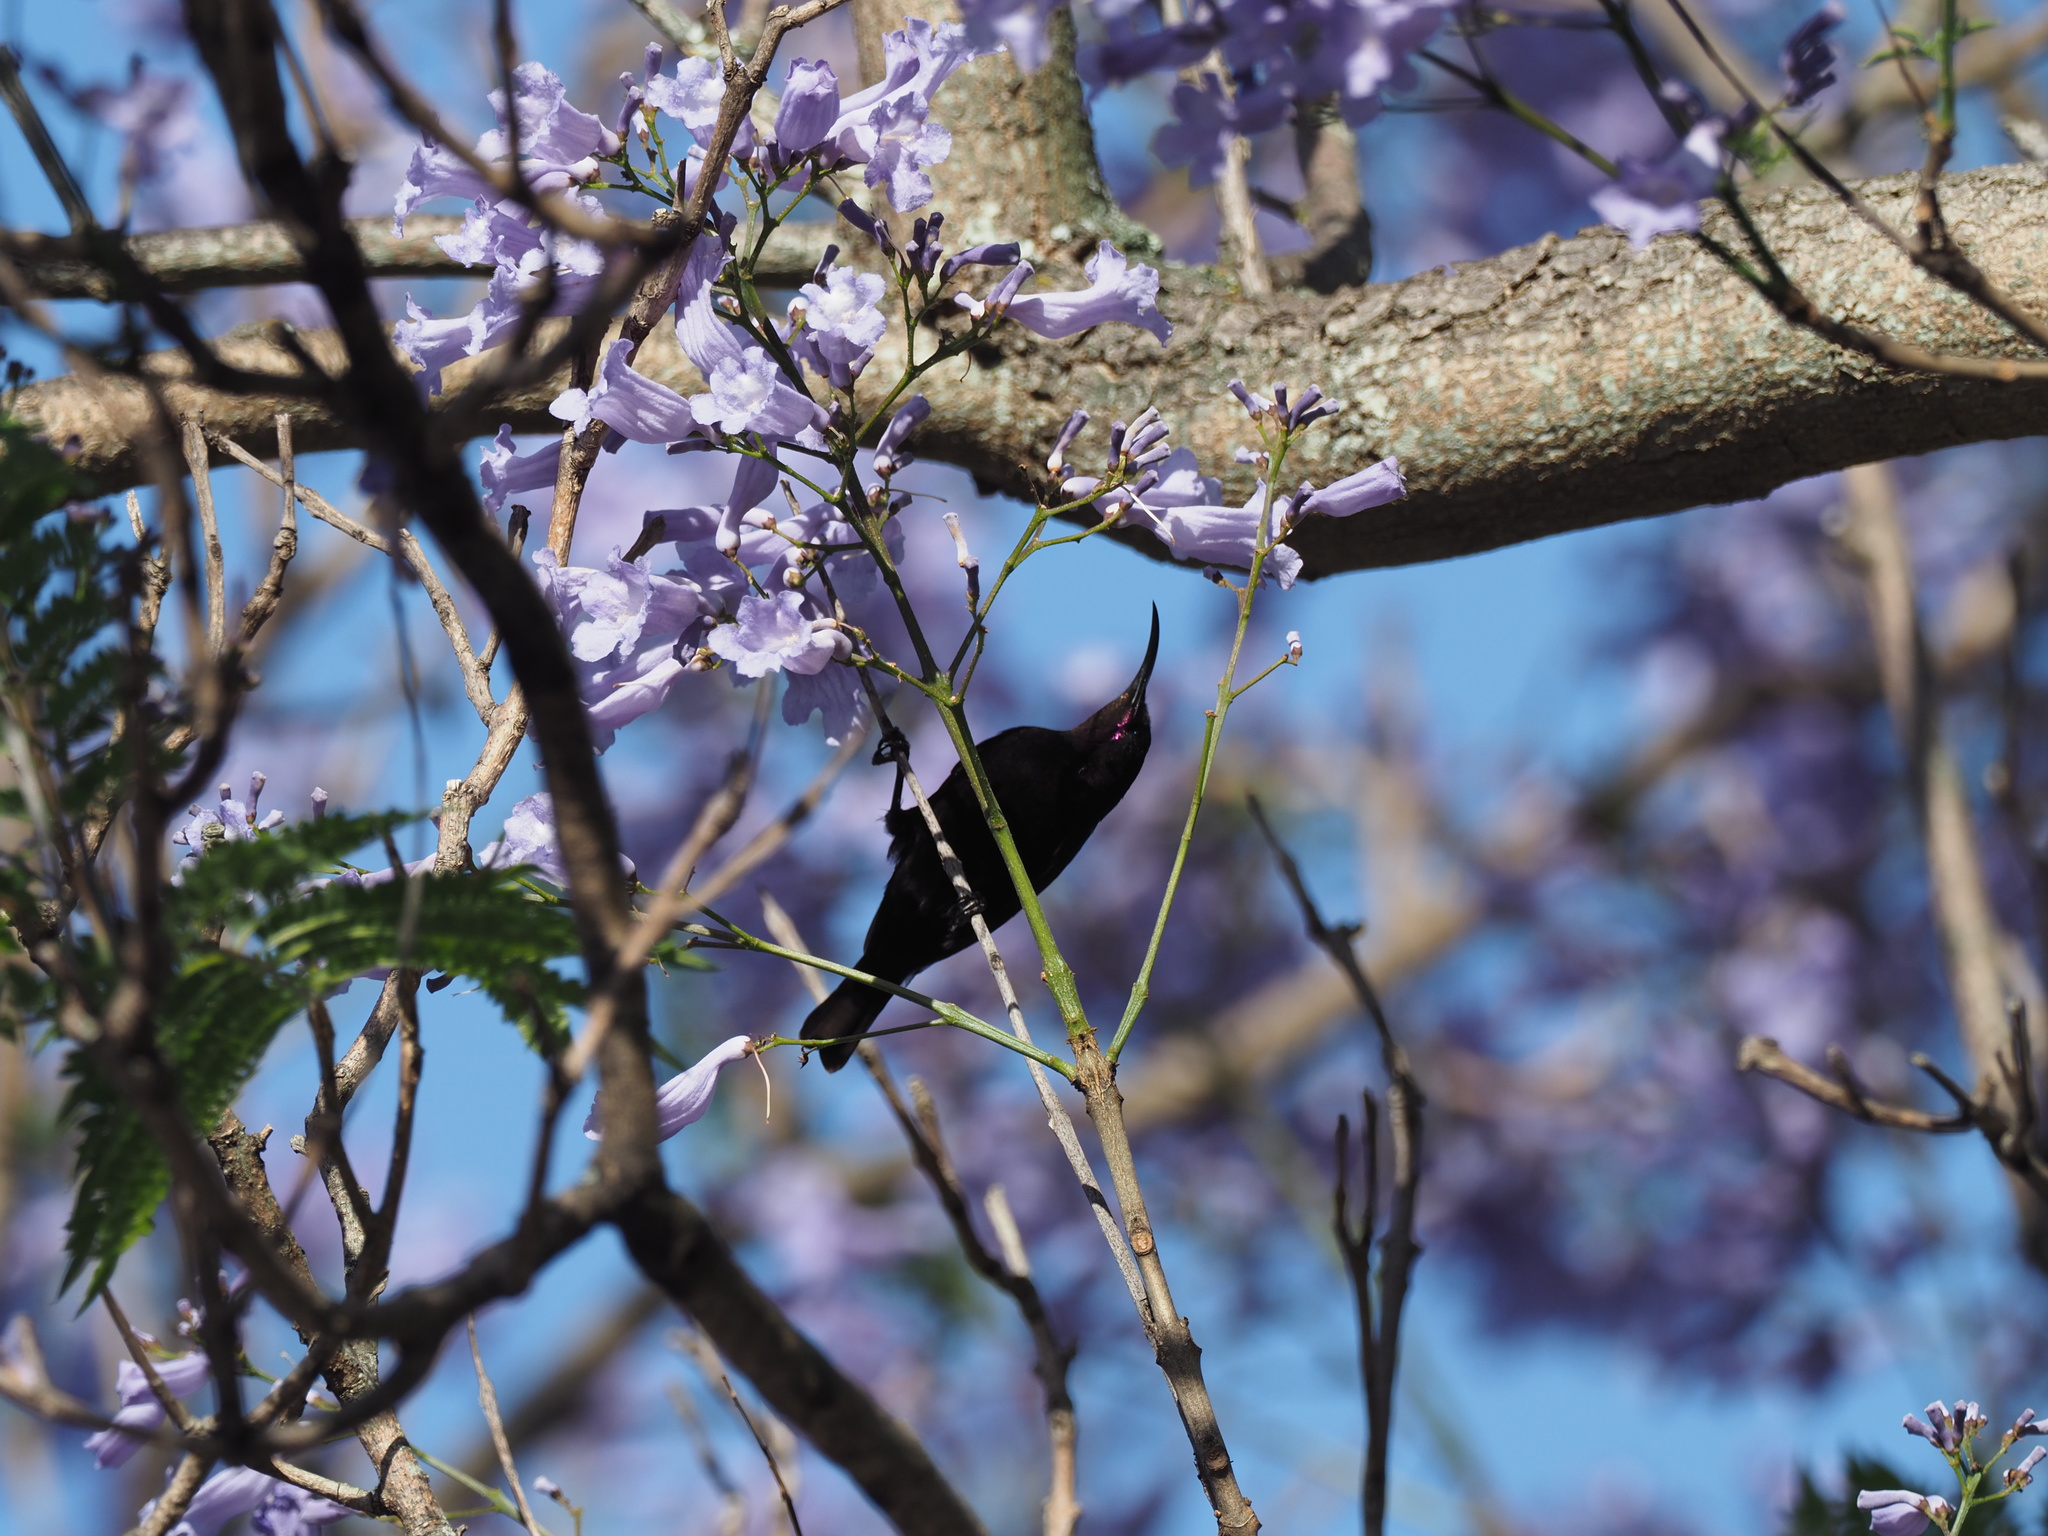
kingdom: Animalia
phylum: Chordata
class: Aves
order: Passeriformes
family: Nectariniidae
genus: Chalcomitra
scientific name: Chalcomitra amethystina
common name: Amethyst sunbird
